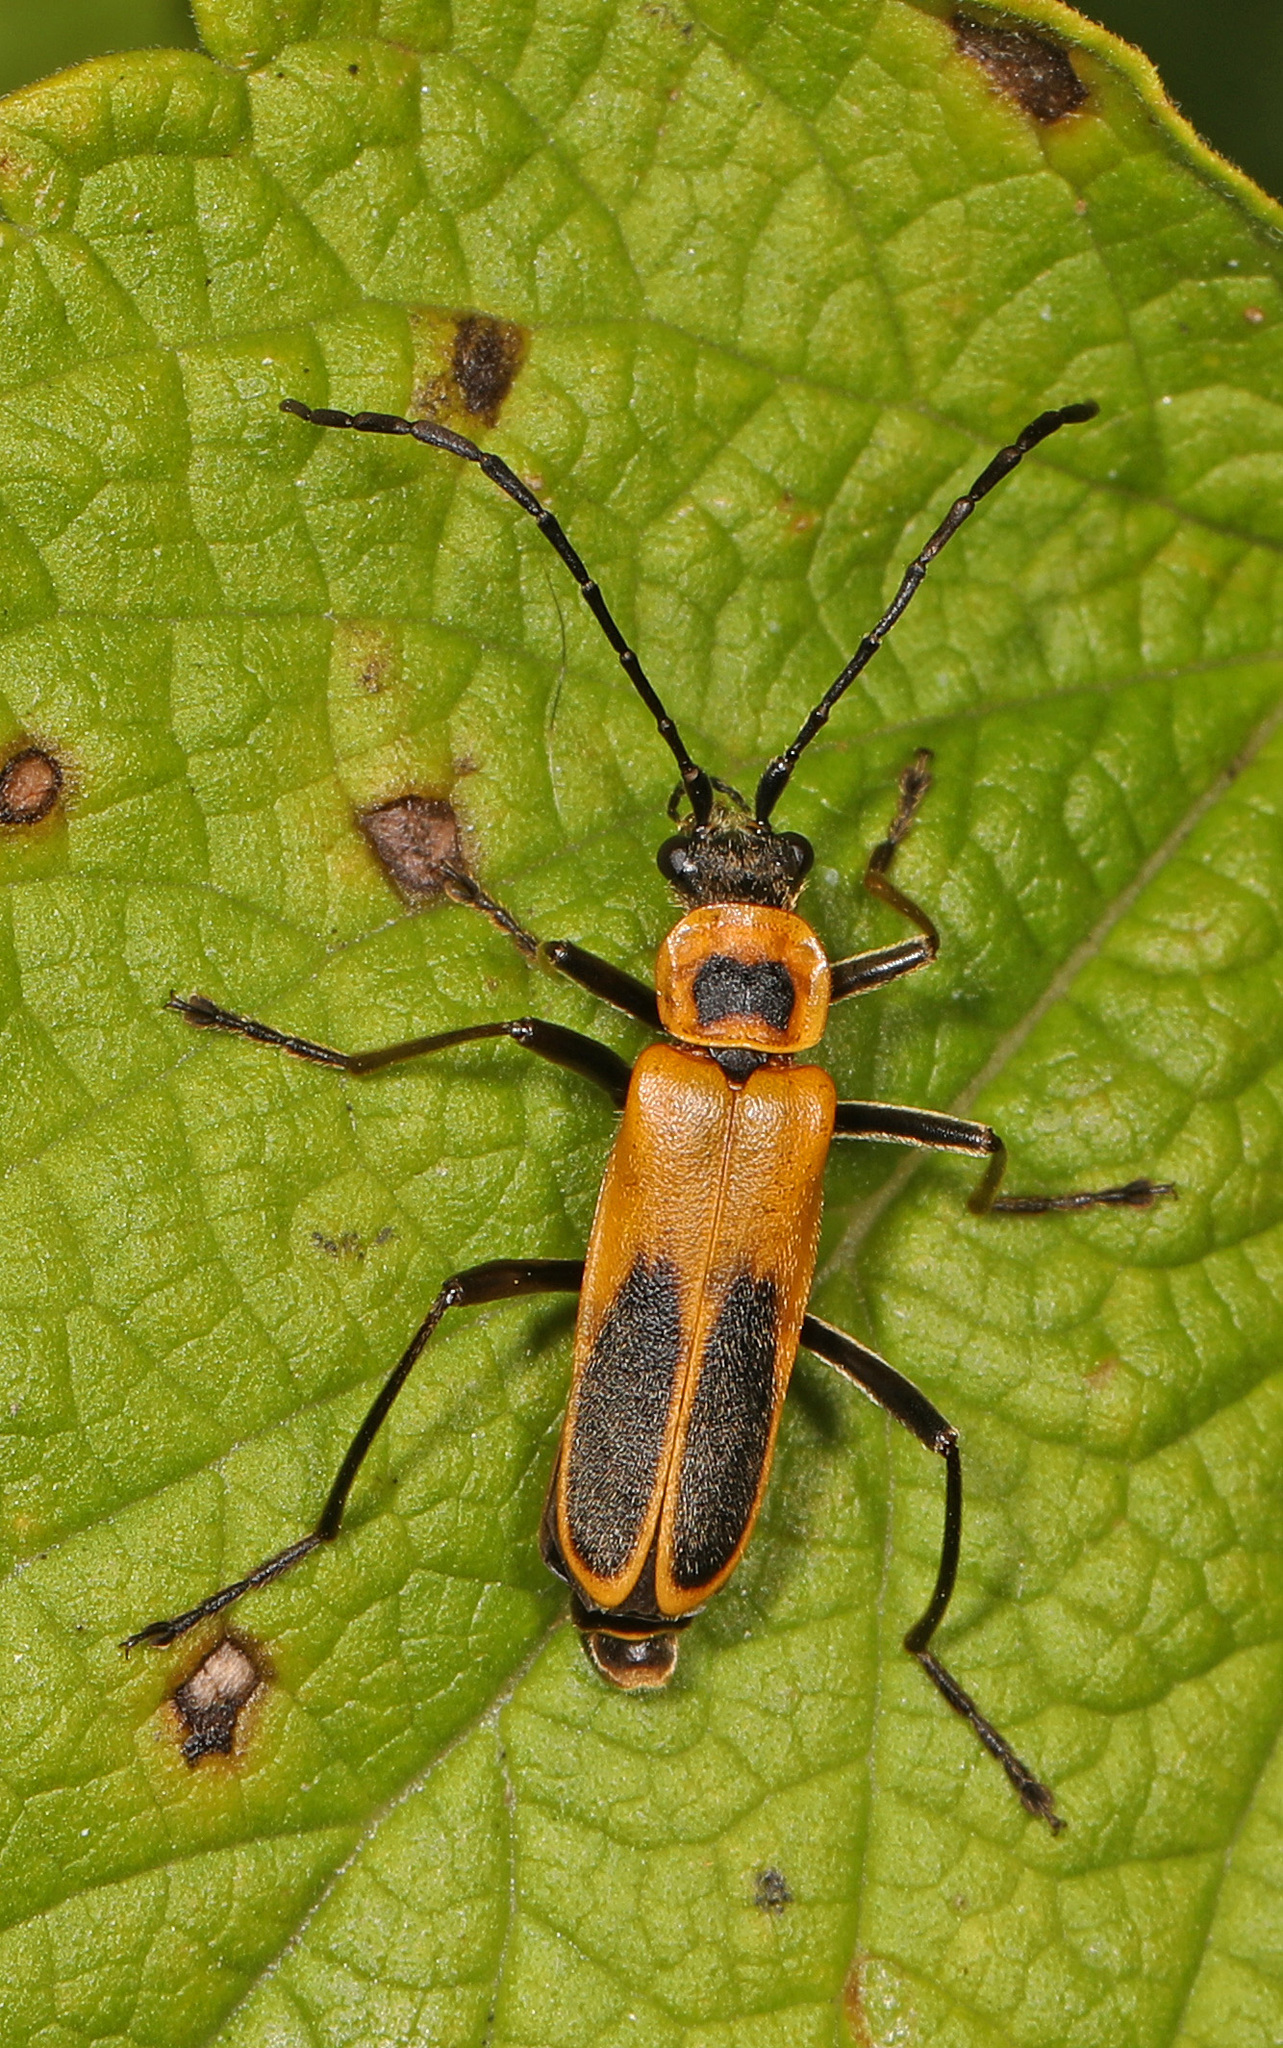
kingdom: Animalia
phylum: Arthropoda
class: Insecta
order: Coleoptera
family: Cantharidae
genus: Chauliognathus
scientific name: Chauliognathus pensylvanicus
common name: Goldenrod soldier beetle
